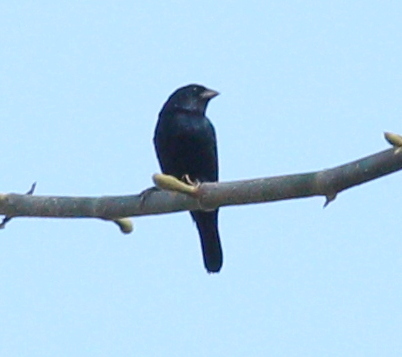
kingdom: Animalia
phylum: Chordata
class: Aves
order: Passeriformes
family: Thraupidae
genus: Volatinia
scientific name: Volatinia jacarina
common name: Blue-black grassquit
